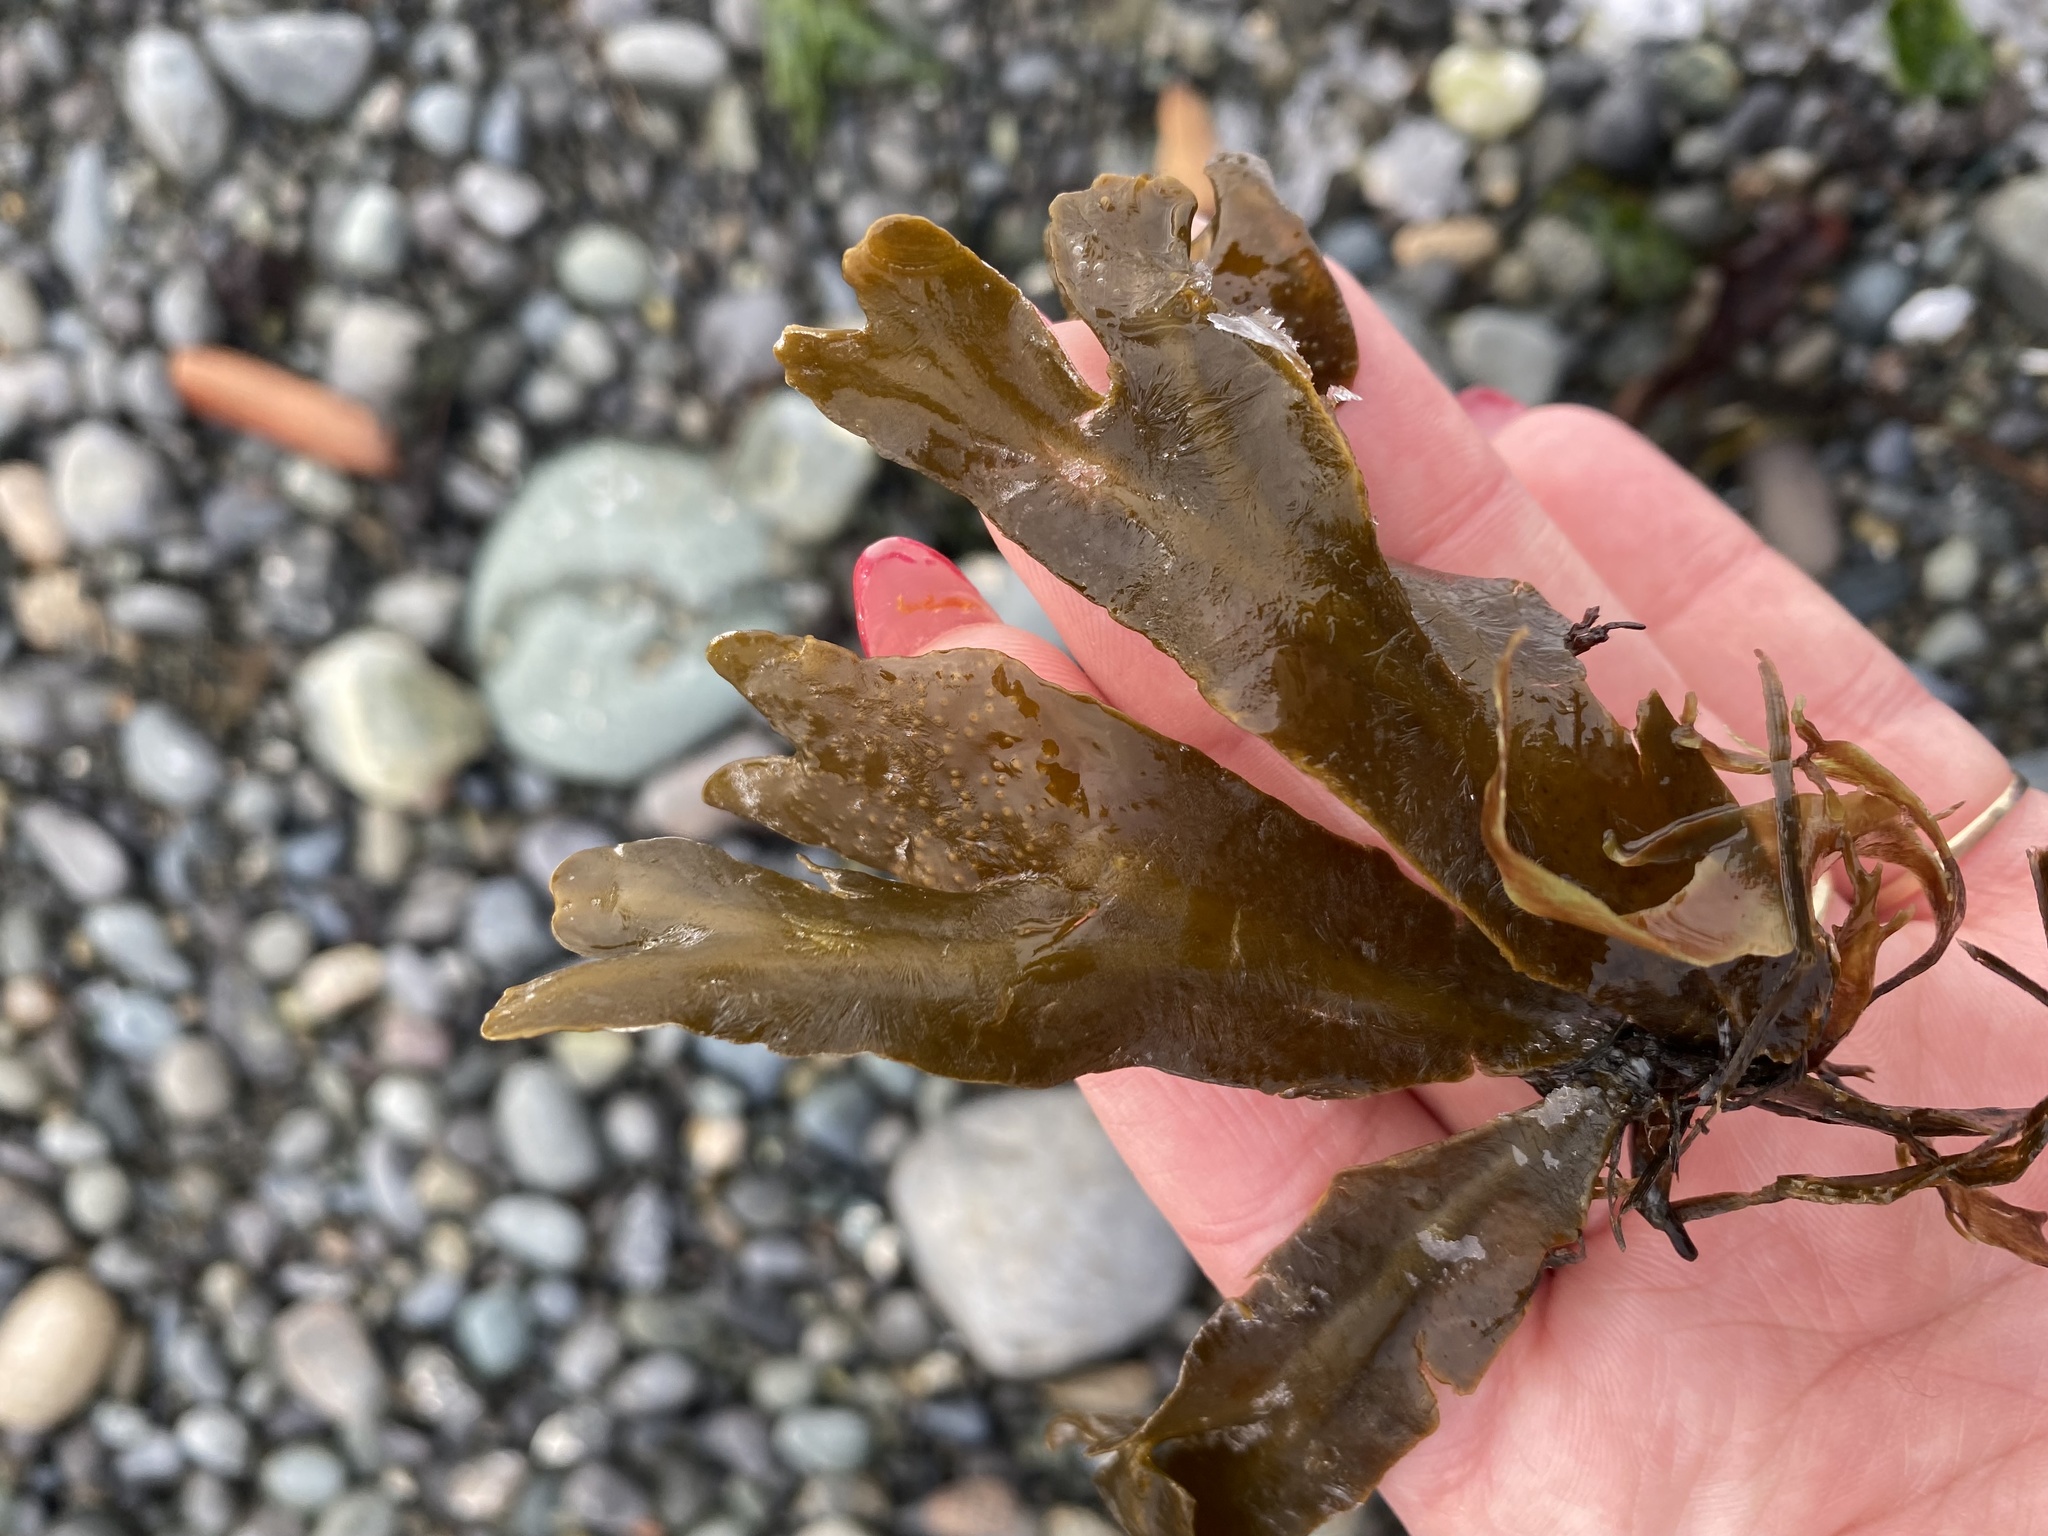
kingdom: Chromista
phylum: Ochrophyta
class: Phaeophyceae
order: Fucales
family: Fucaceae
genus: Fucus
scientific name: Fucus distichus
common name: Rockweed
